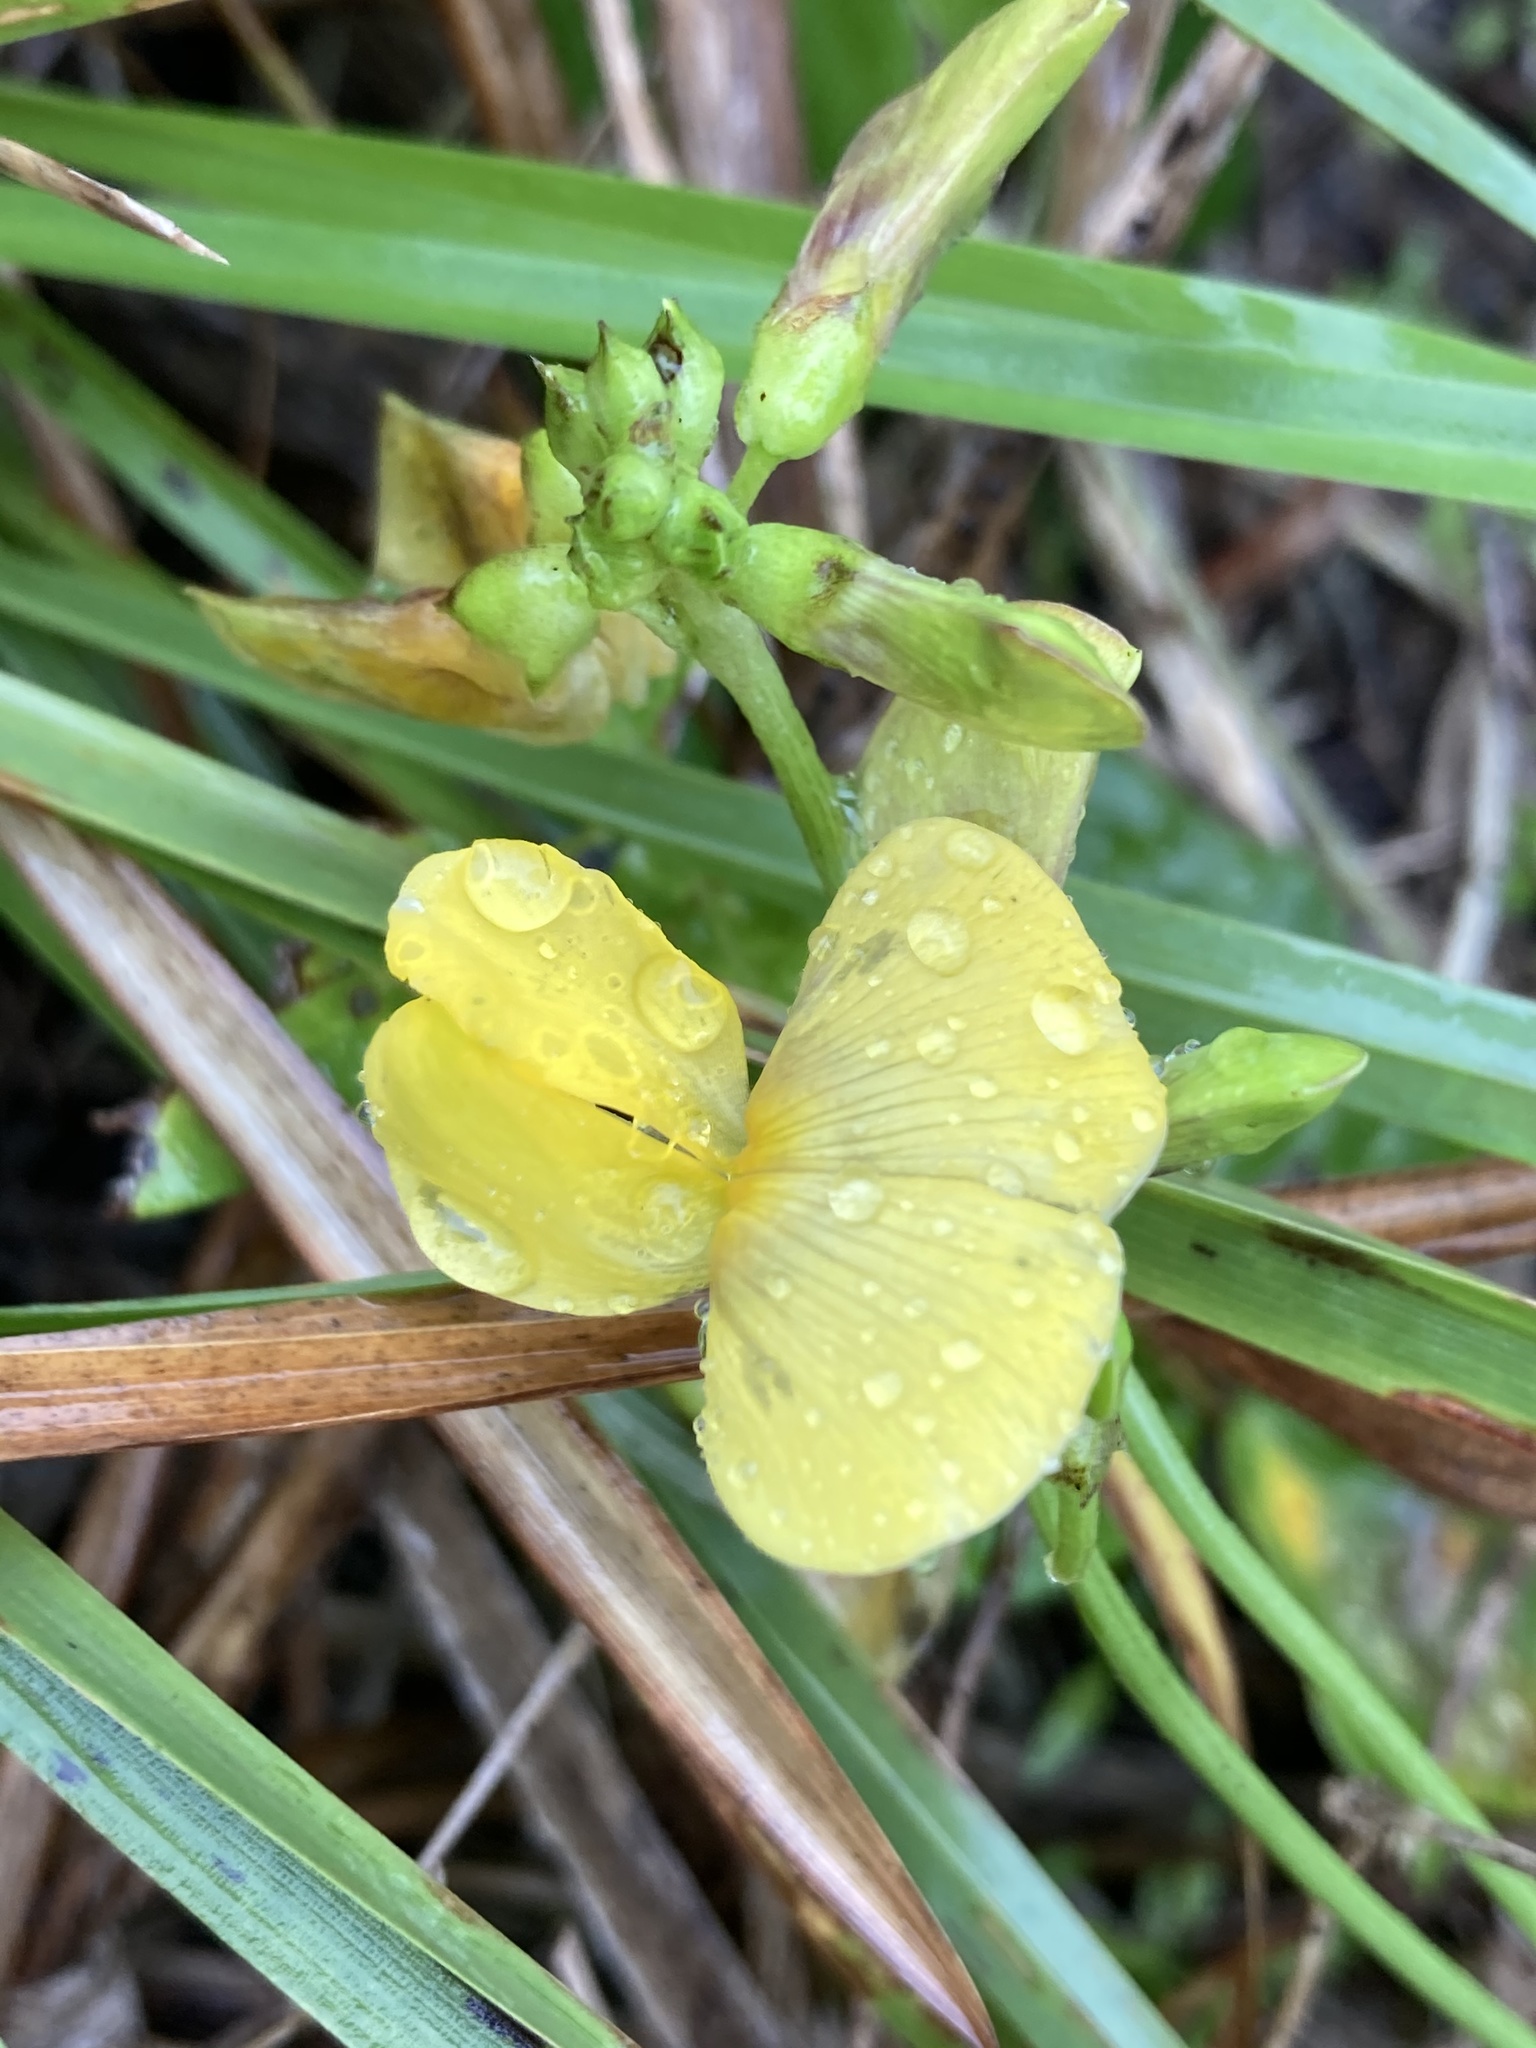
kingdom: Plantae
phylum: Tracheophyta
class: Magnoliopsida
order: Fabales
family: Fabaceae
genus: Vigna
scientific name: Vigna luteola
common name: Hairypod cowpea
